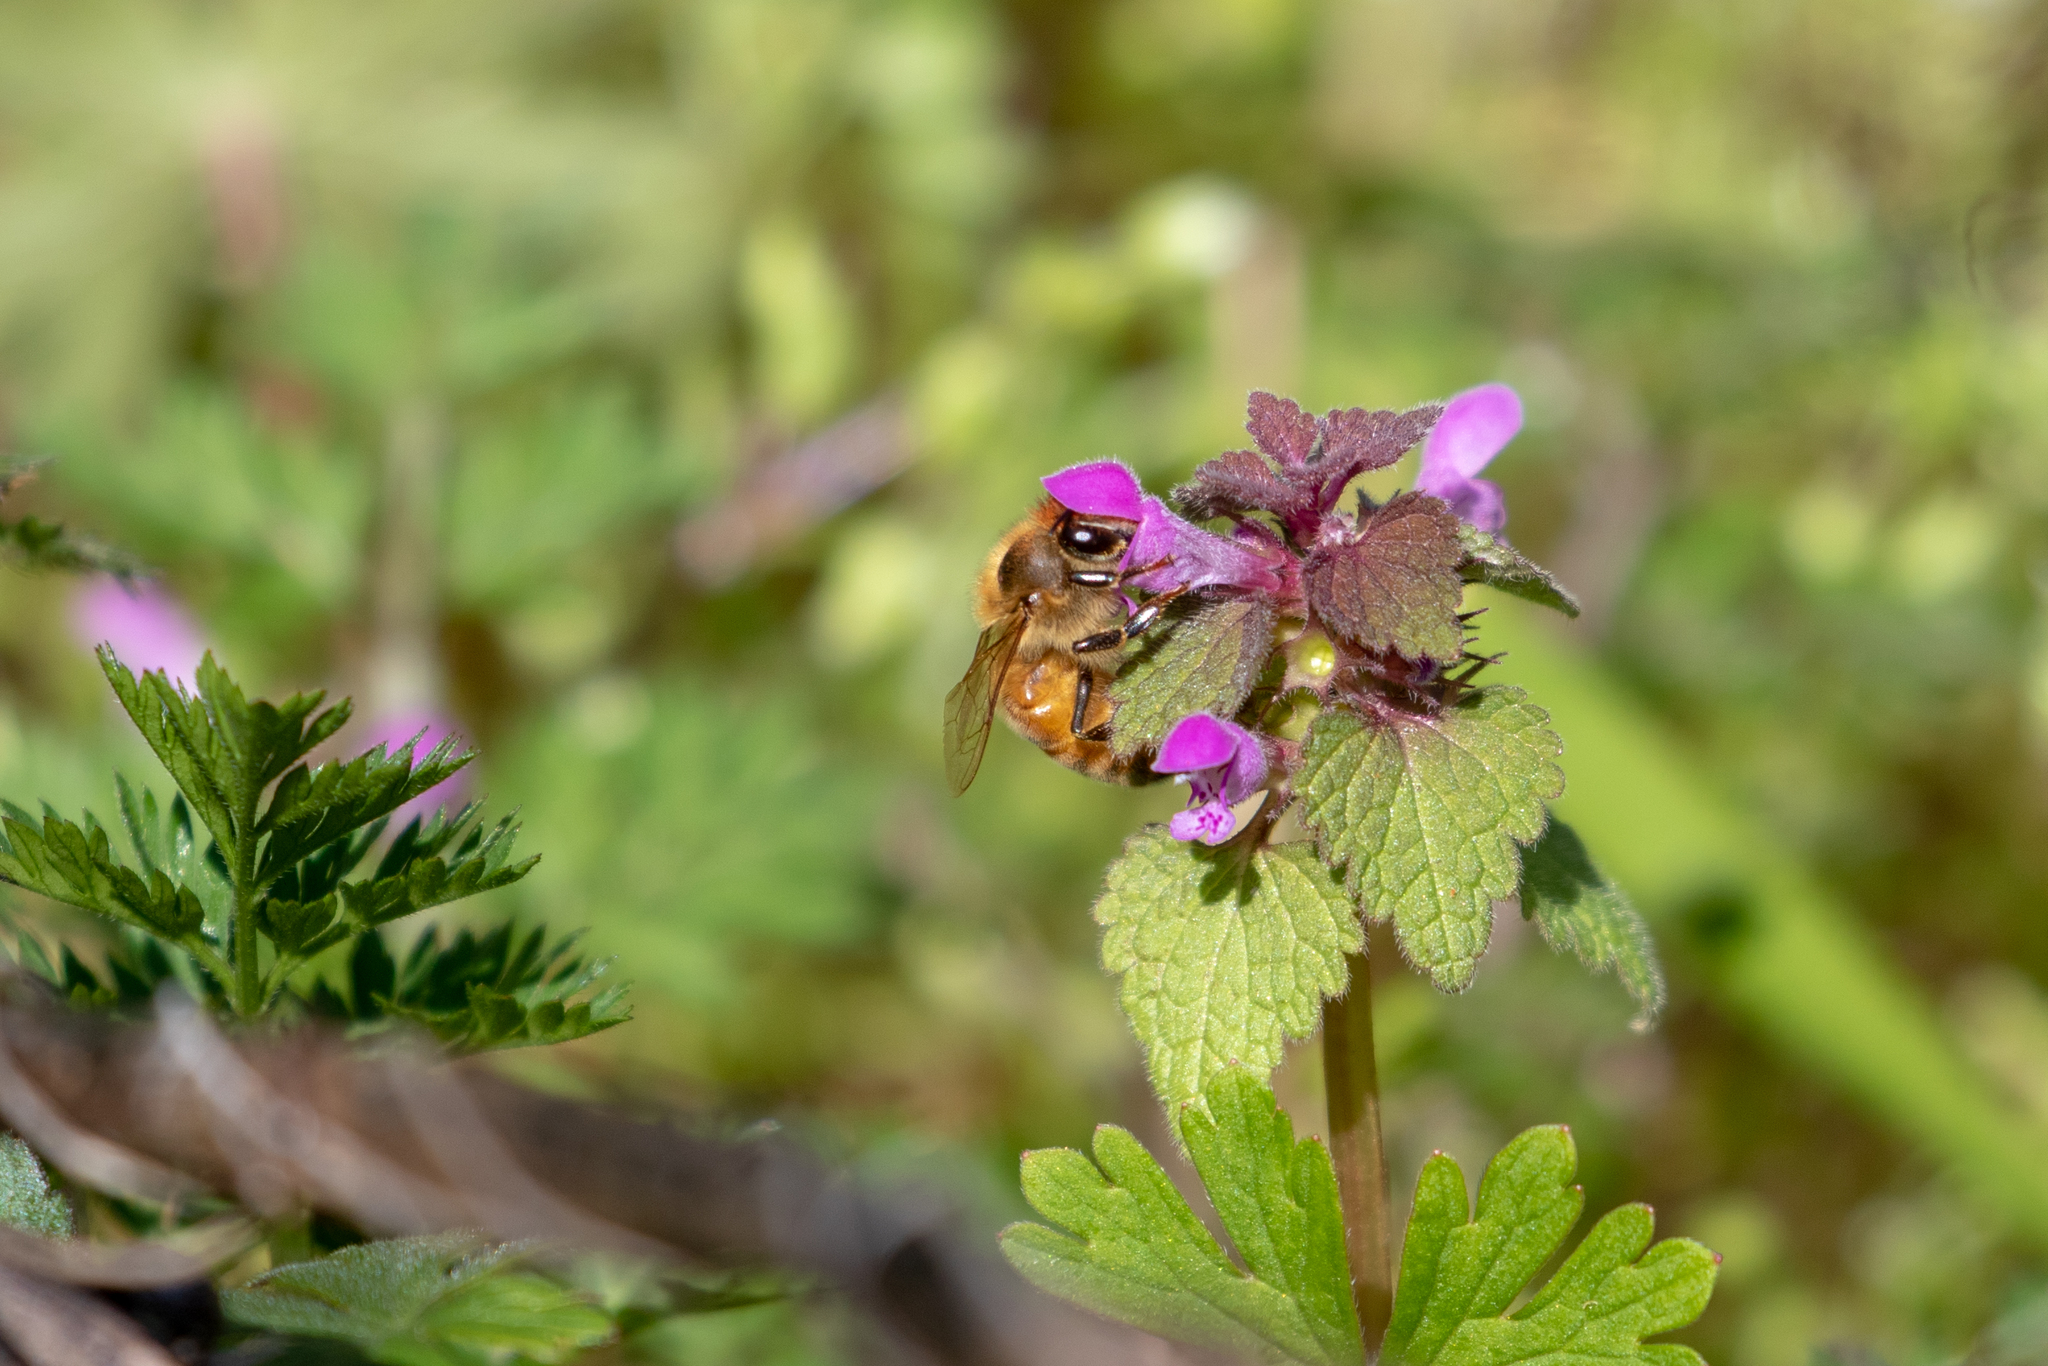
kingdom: Animalia
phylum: Arthropoda
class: Insecta
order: Hymenoptera
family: Apidae
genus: Apis
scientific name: Apis mellifera
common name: Honey bee
